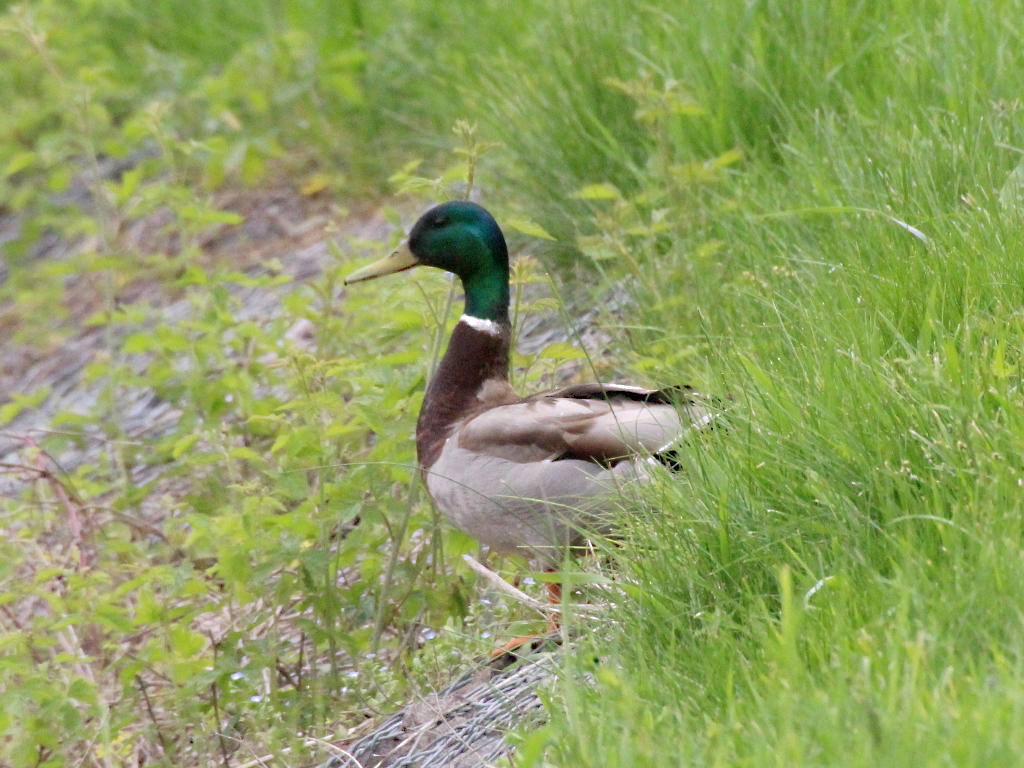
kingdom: Animalia
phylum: Chordata
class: Aves
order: Anseriformes
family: Anatidae
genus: Anas
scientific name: Anas platyrhynchos
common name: Mallard
